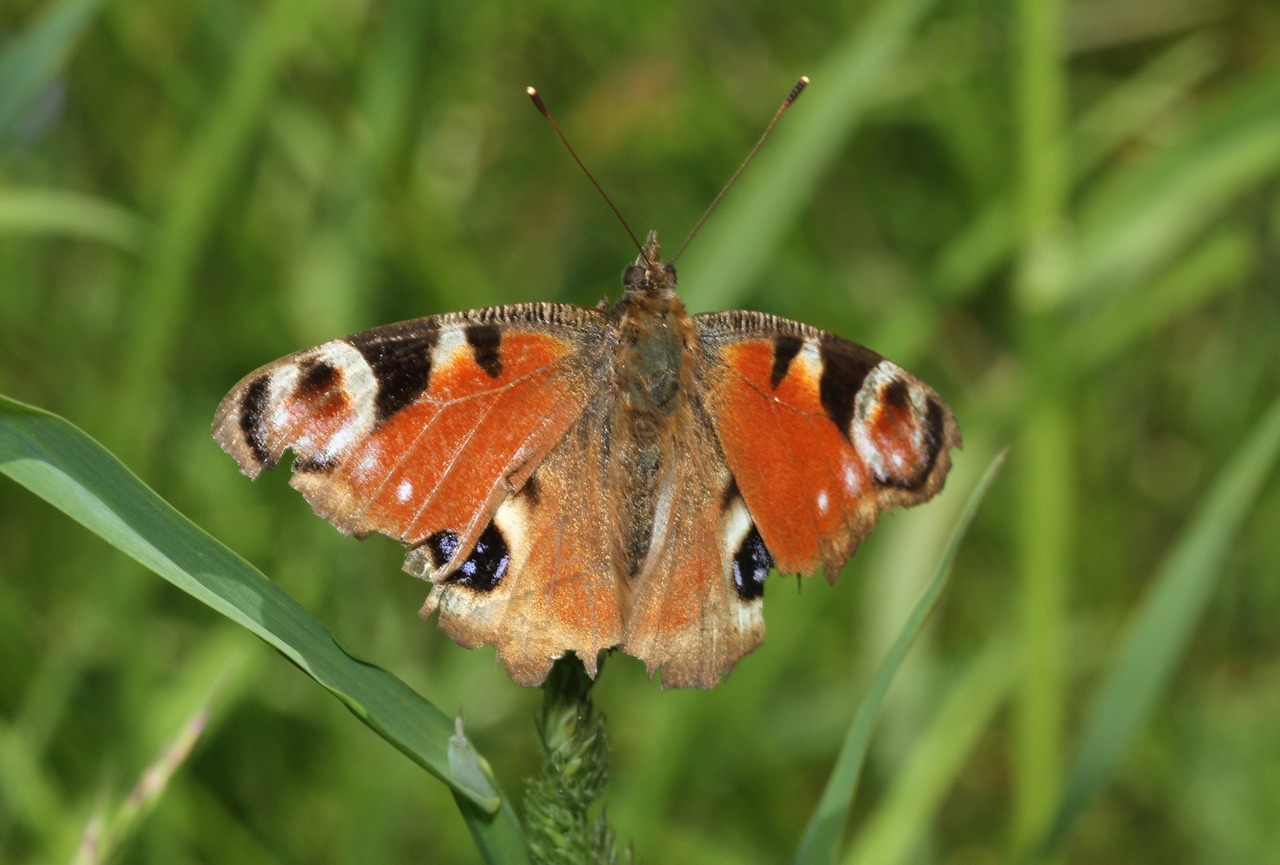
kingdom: Animalia
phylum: Arthropoda
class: Insecta
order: Lepidoptera
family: Nymphalidae
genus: Aglais
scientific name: Aglais io
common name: Peacock
